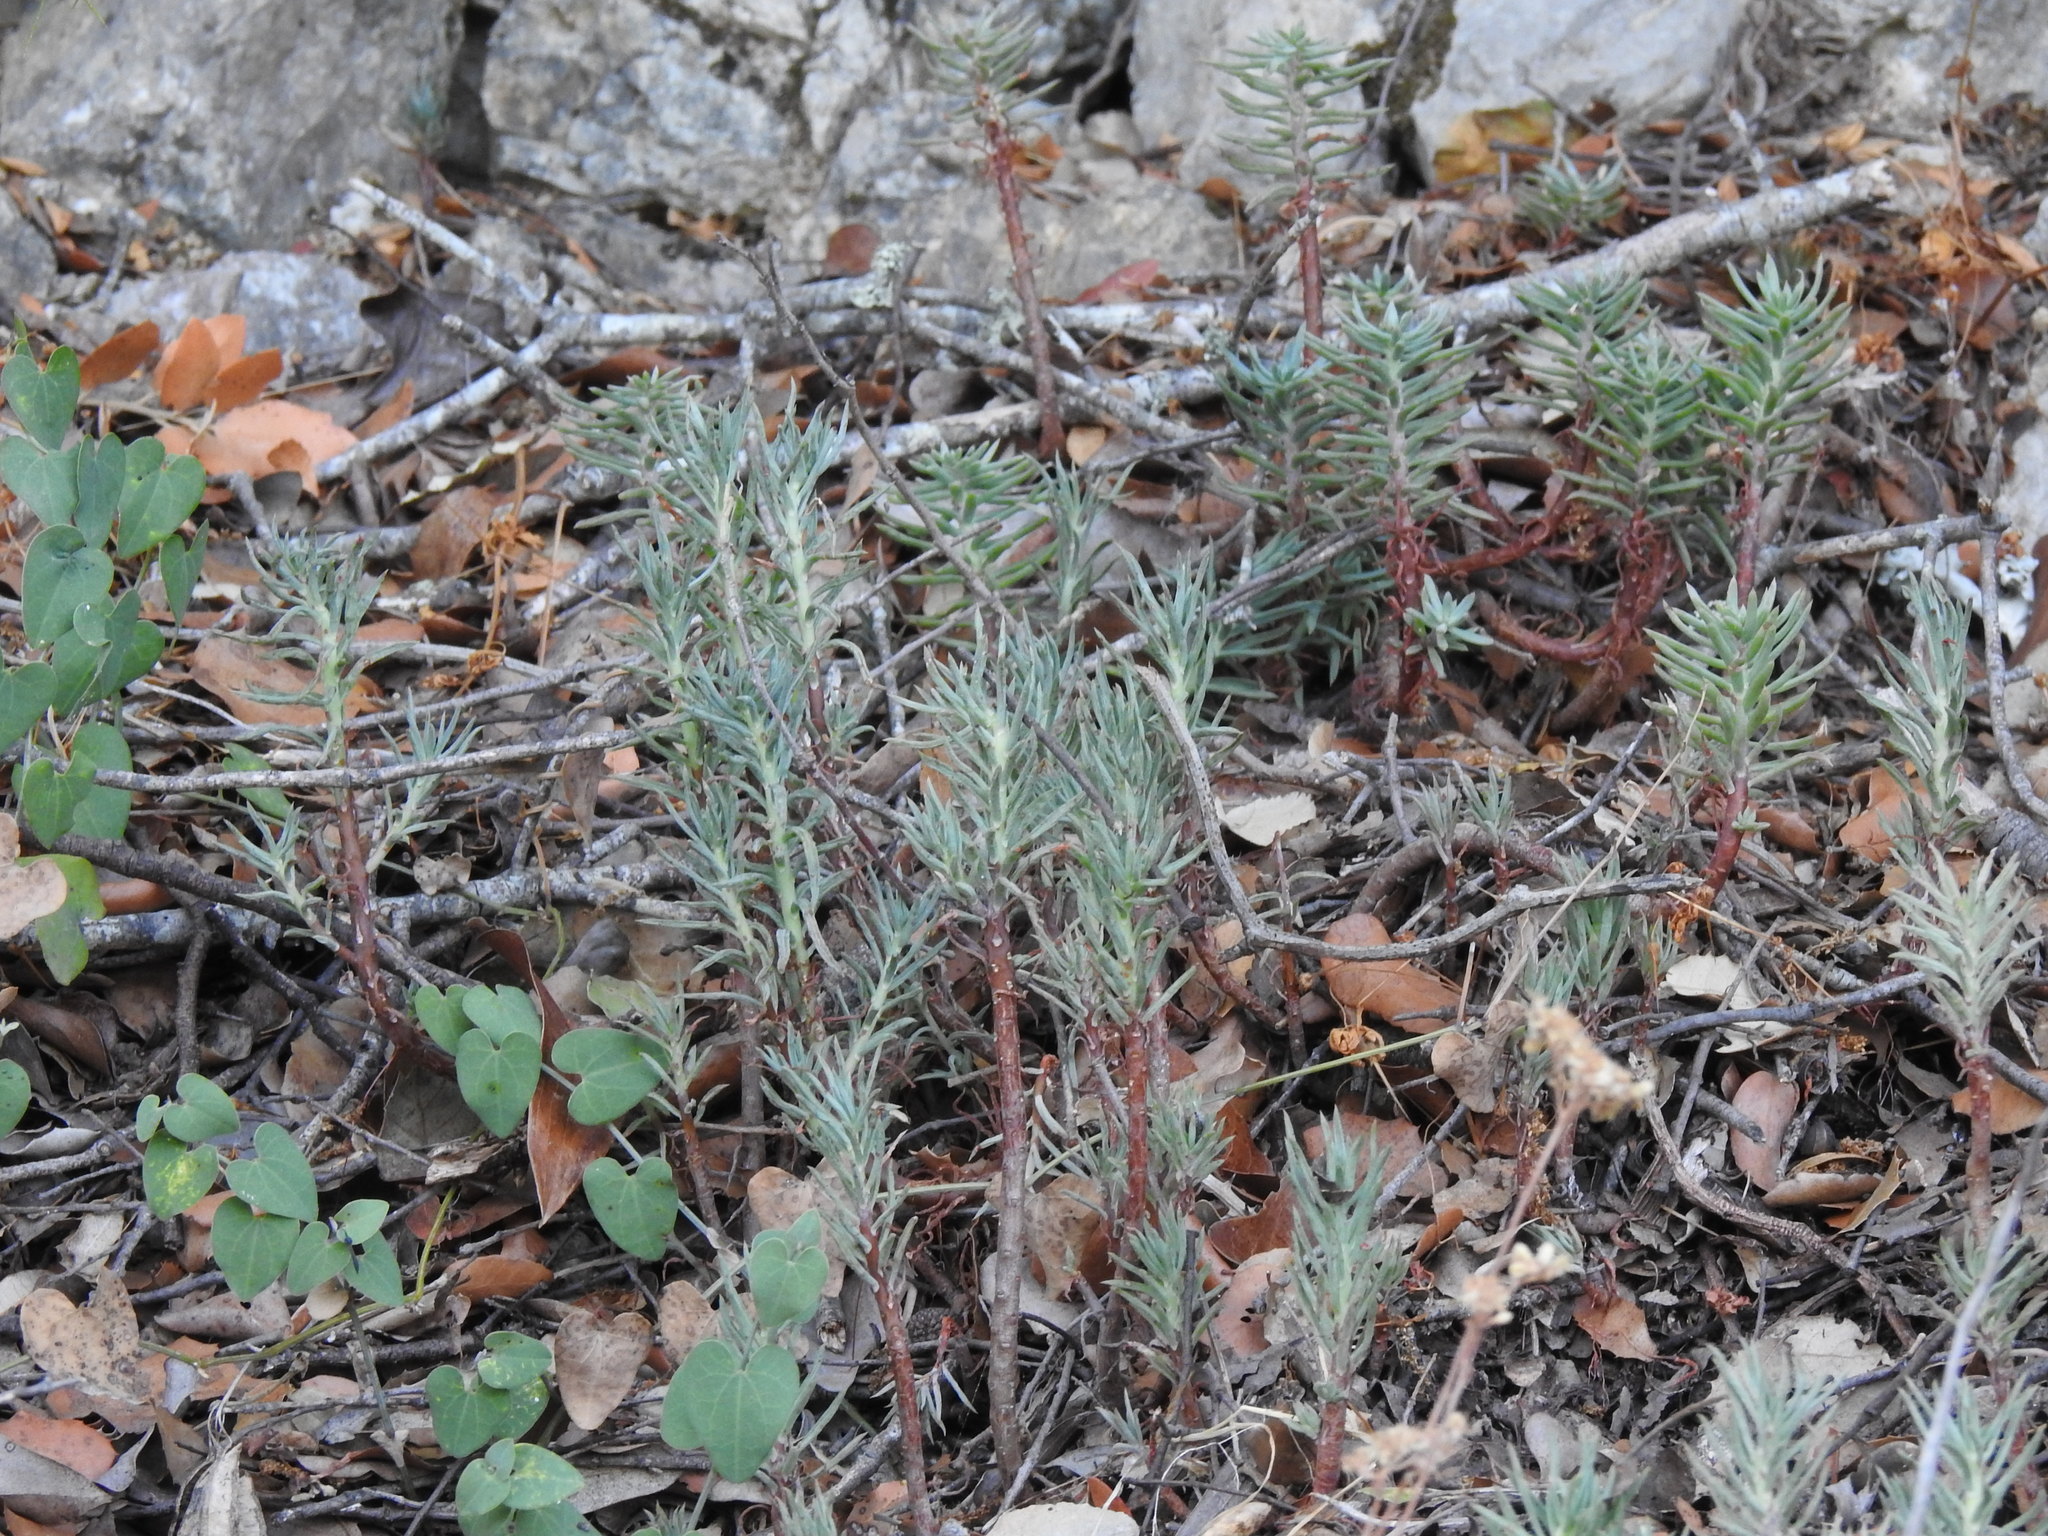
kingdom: Plantae
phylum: Tracheophyta
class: Magnoliopsida
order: Saxifragales
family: Crassulaceae
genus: Petrosedum
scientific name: Petrosedum sediforme
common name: Pale stonecrop
